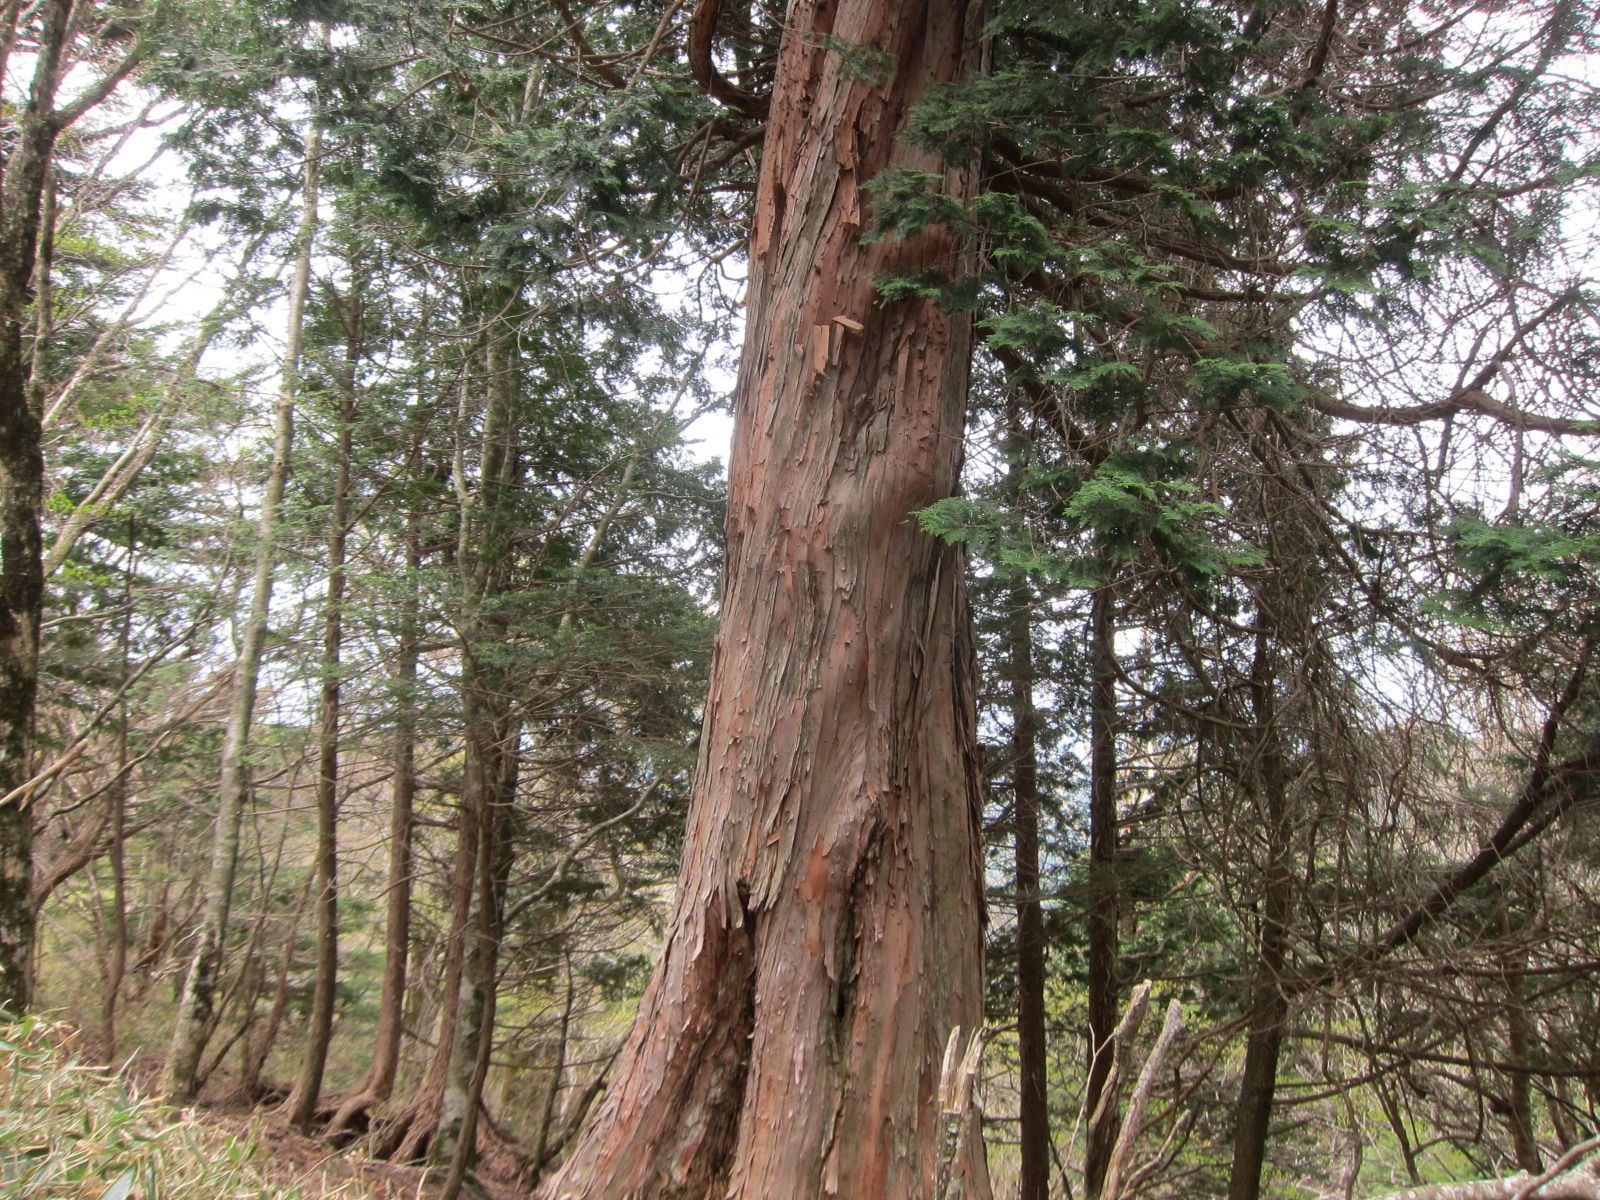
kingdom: Plantae
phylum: Tracheophyta
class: Pinopsida
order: Pinales
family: Cupressaceae
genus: Chamaecyparis
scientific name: Chamaecyparis obtusa
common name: Hinoki false cypress
